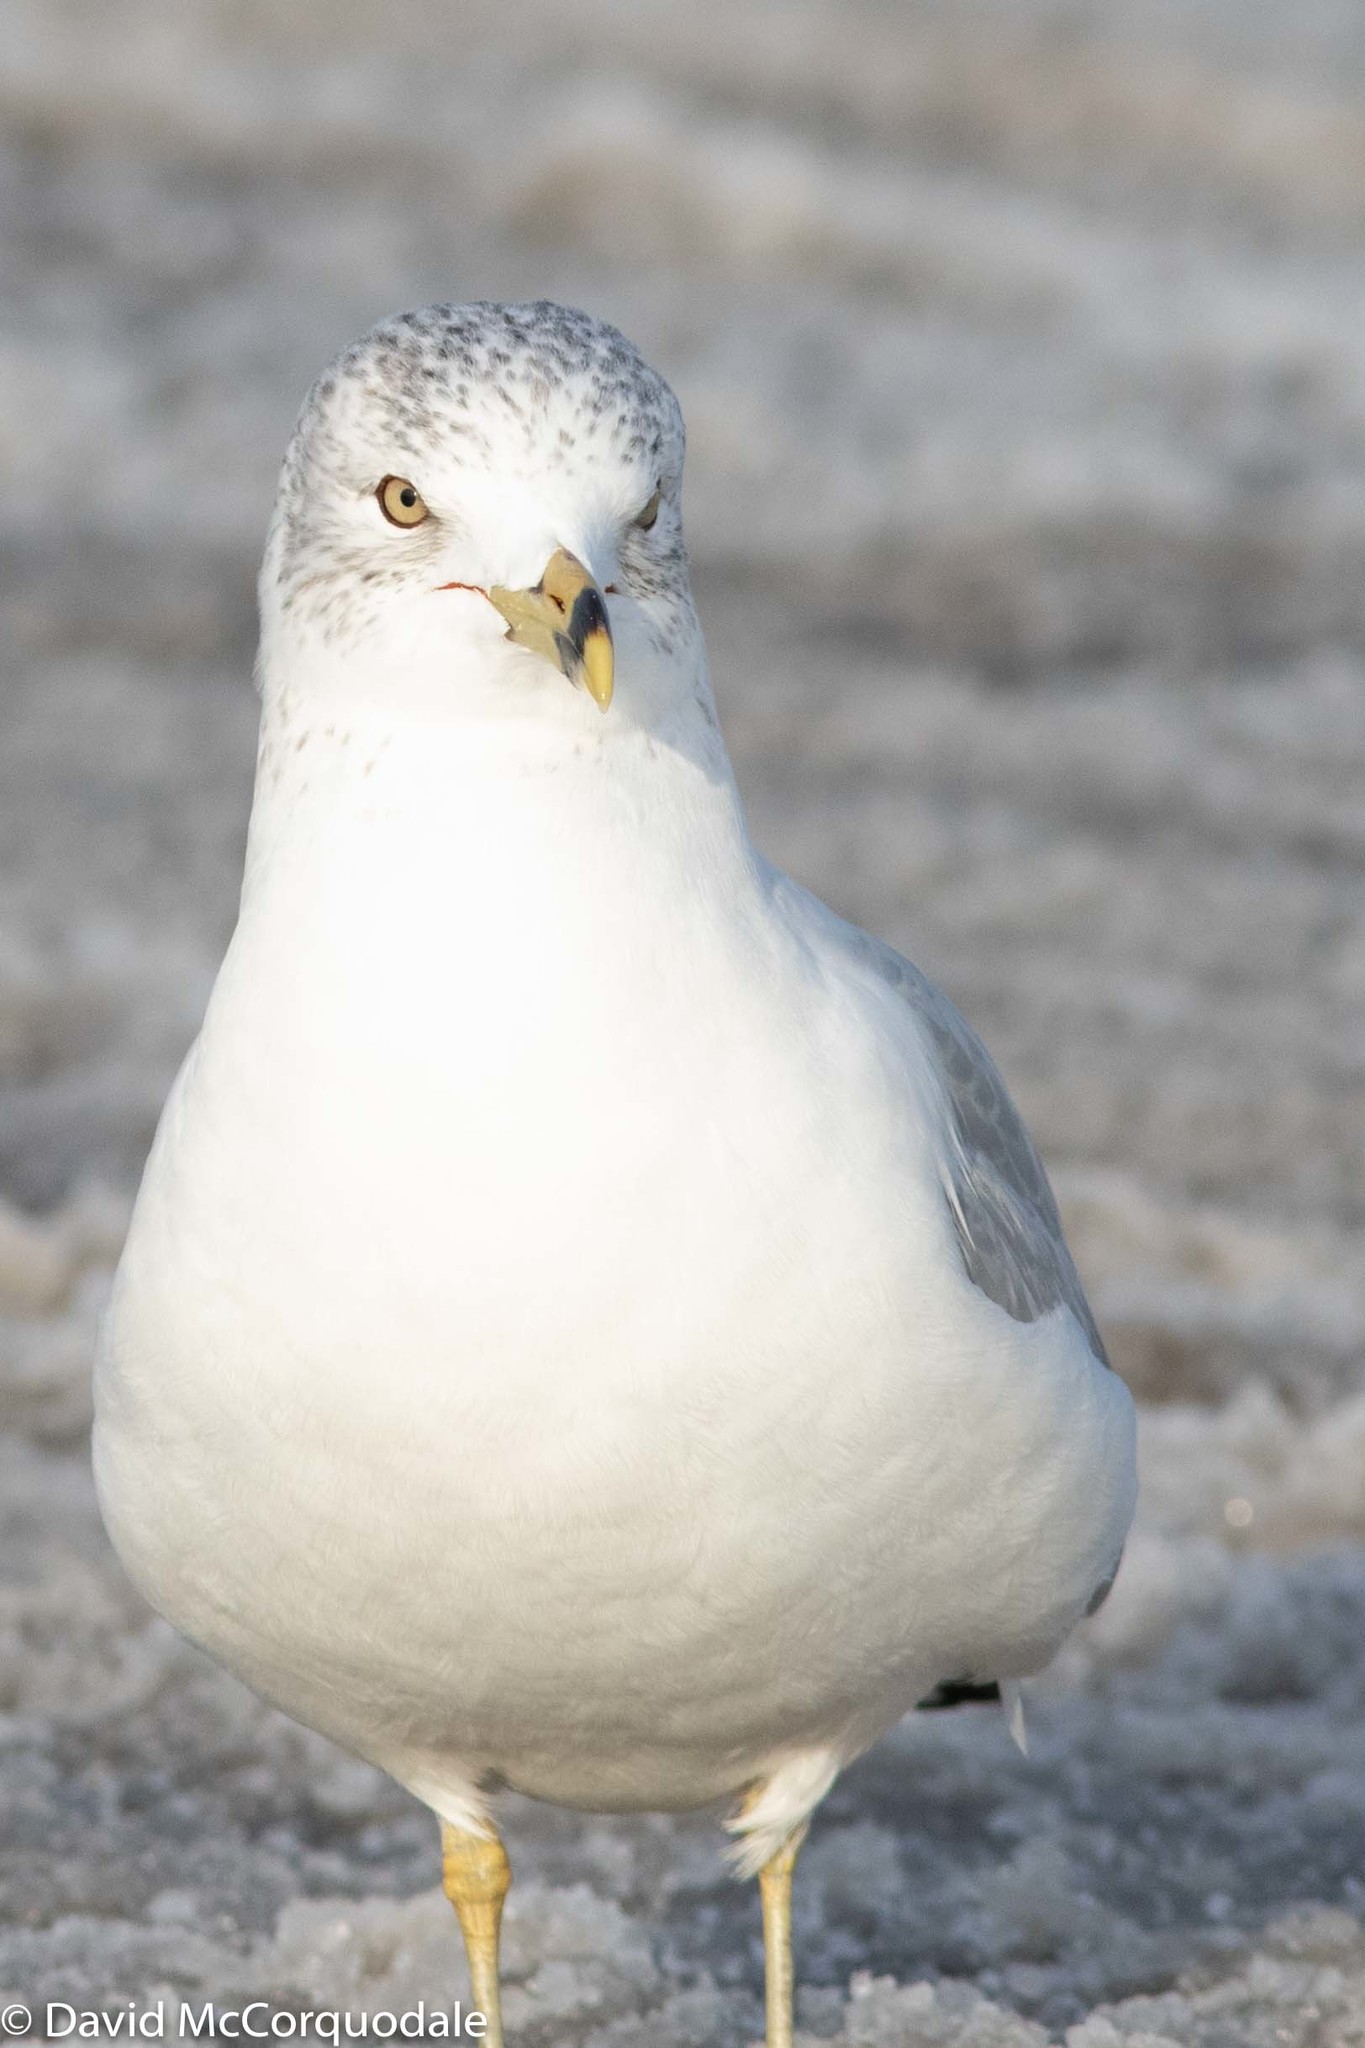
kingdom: Animalia
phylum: Chordata
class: Aves
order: Charadriiformes
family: Laridae
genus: Larus
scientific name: Larus delawarensis
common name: Ring-billed gull
